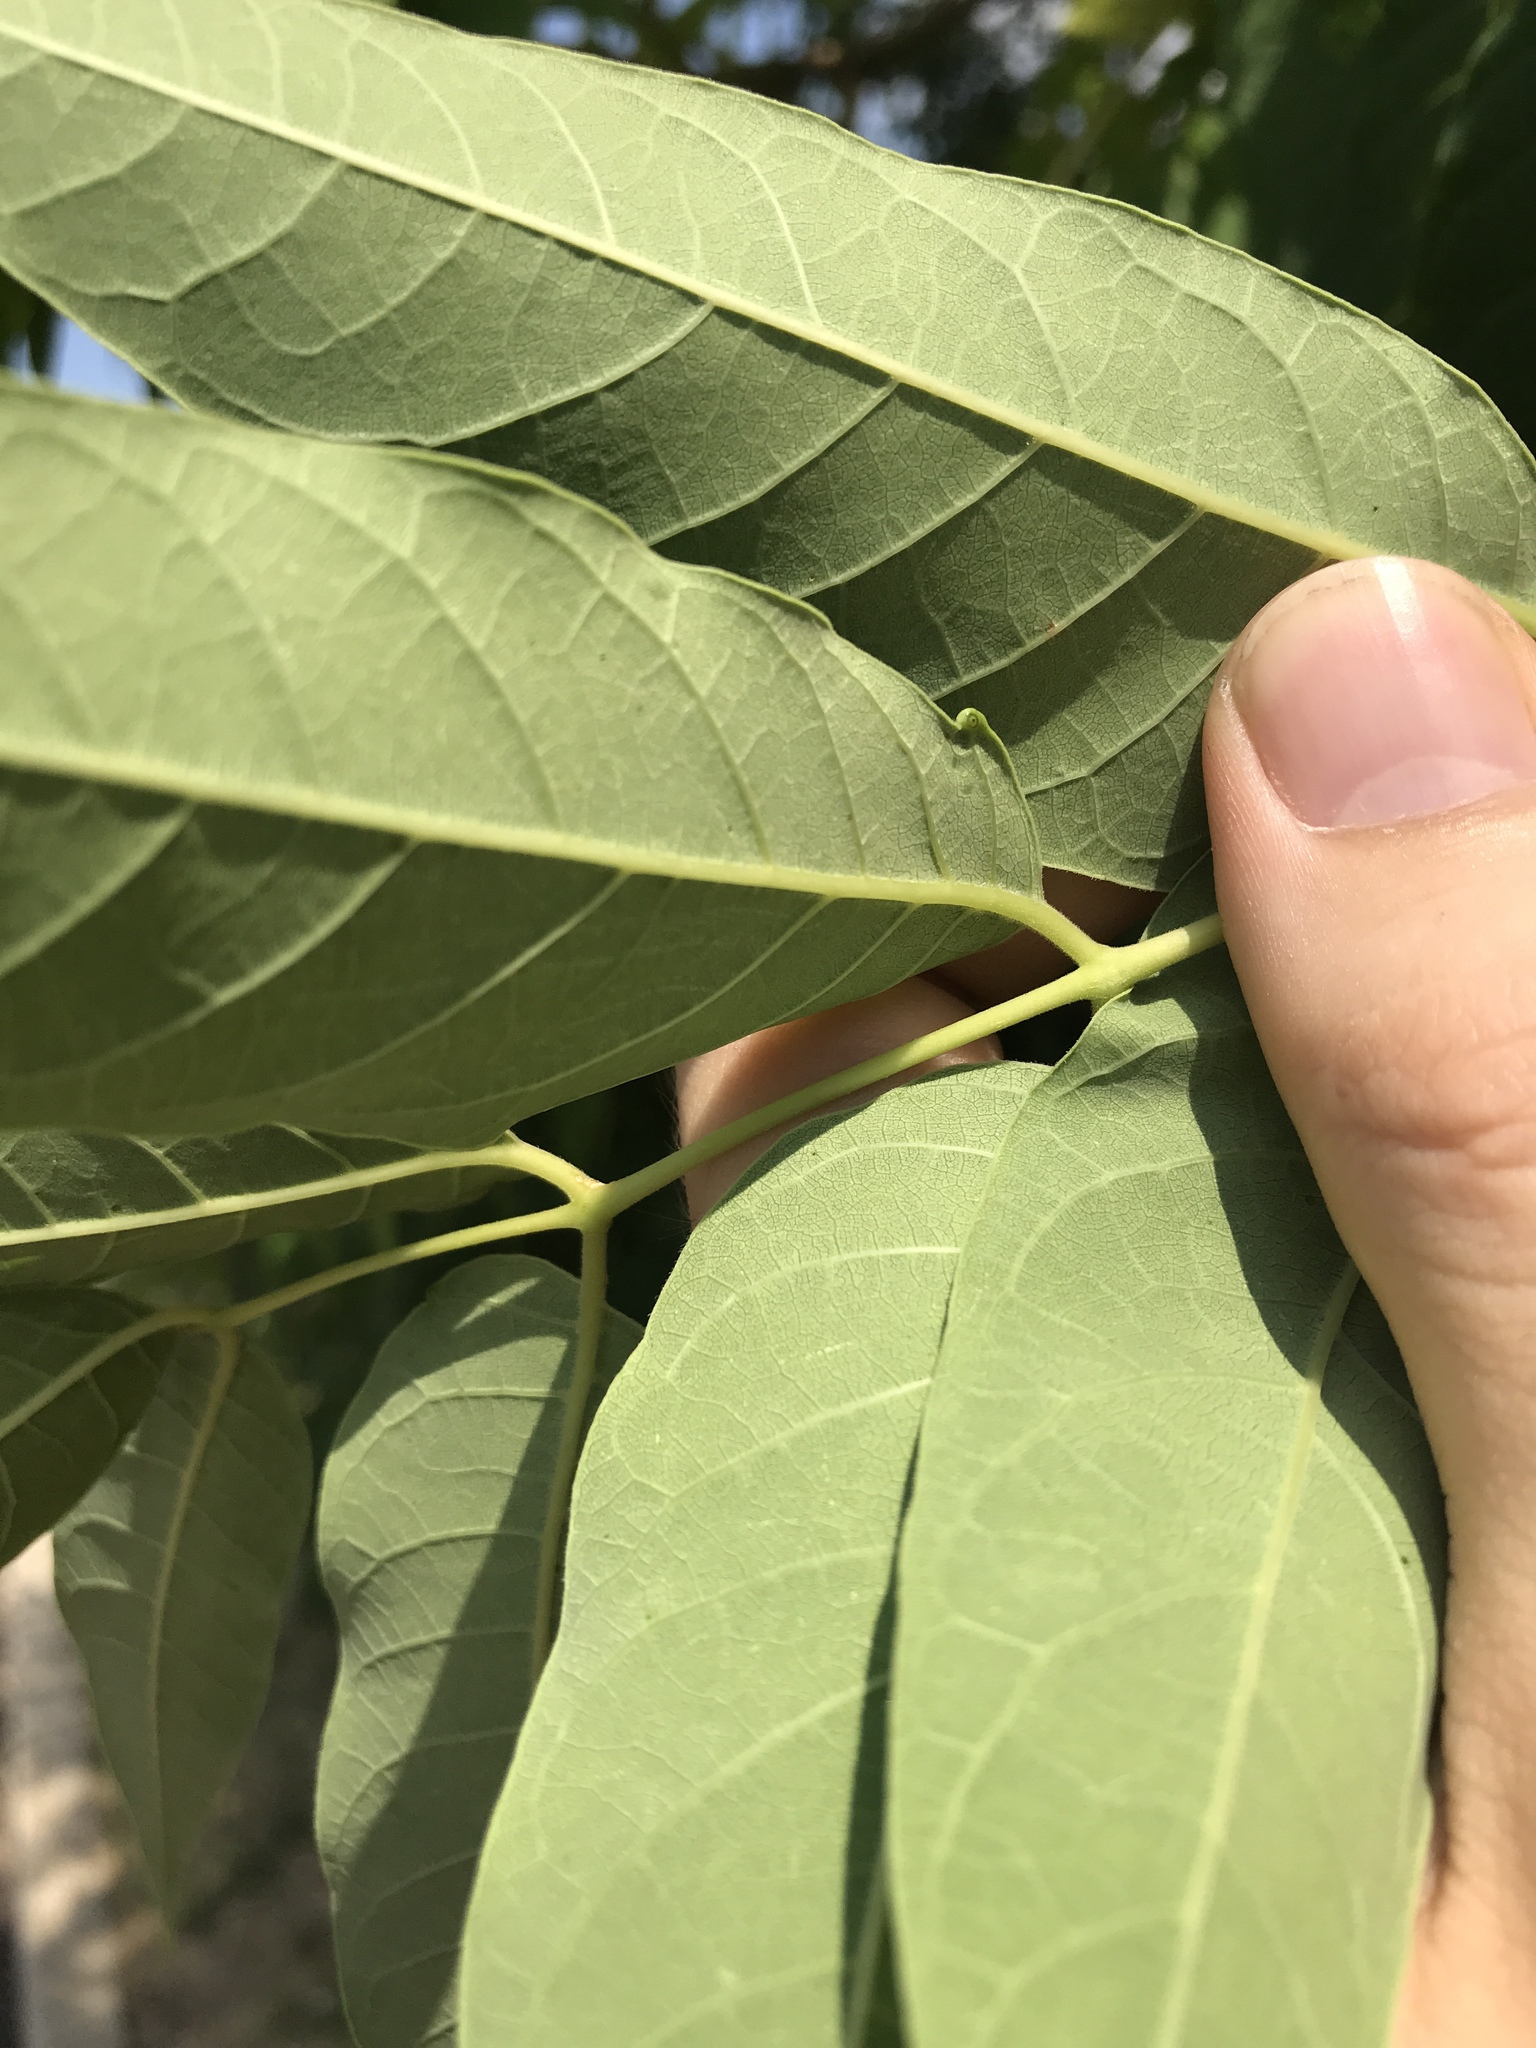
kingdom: Plantae
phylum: Tracheophyta
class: Magnoliopsida
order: Sapindales
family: Simaroubaceae
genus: Ailanthus
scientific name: Ailanthus altissima
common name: Tree-of-heaven
